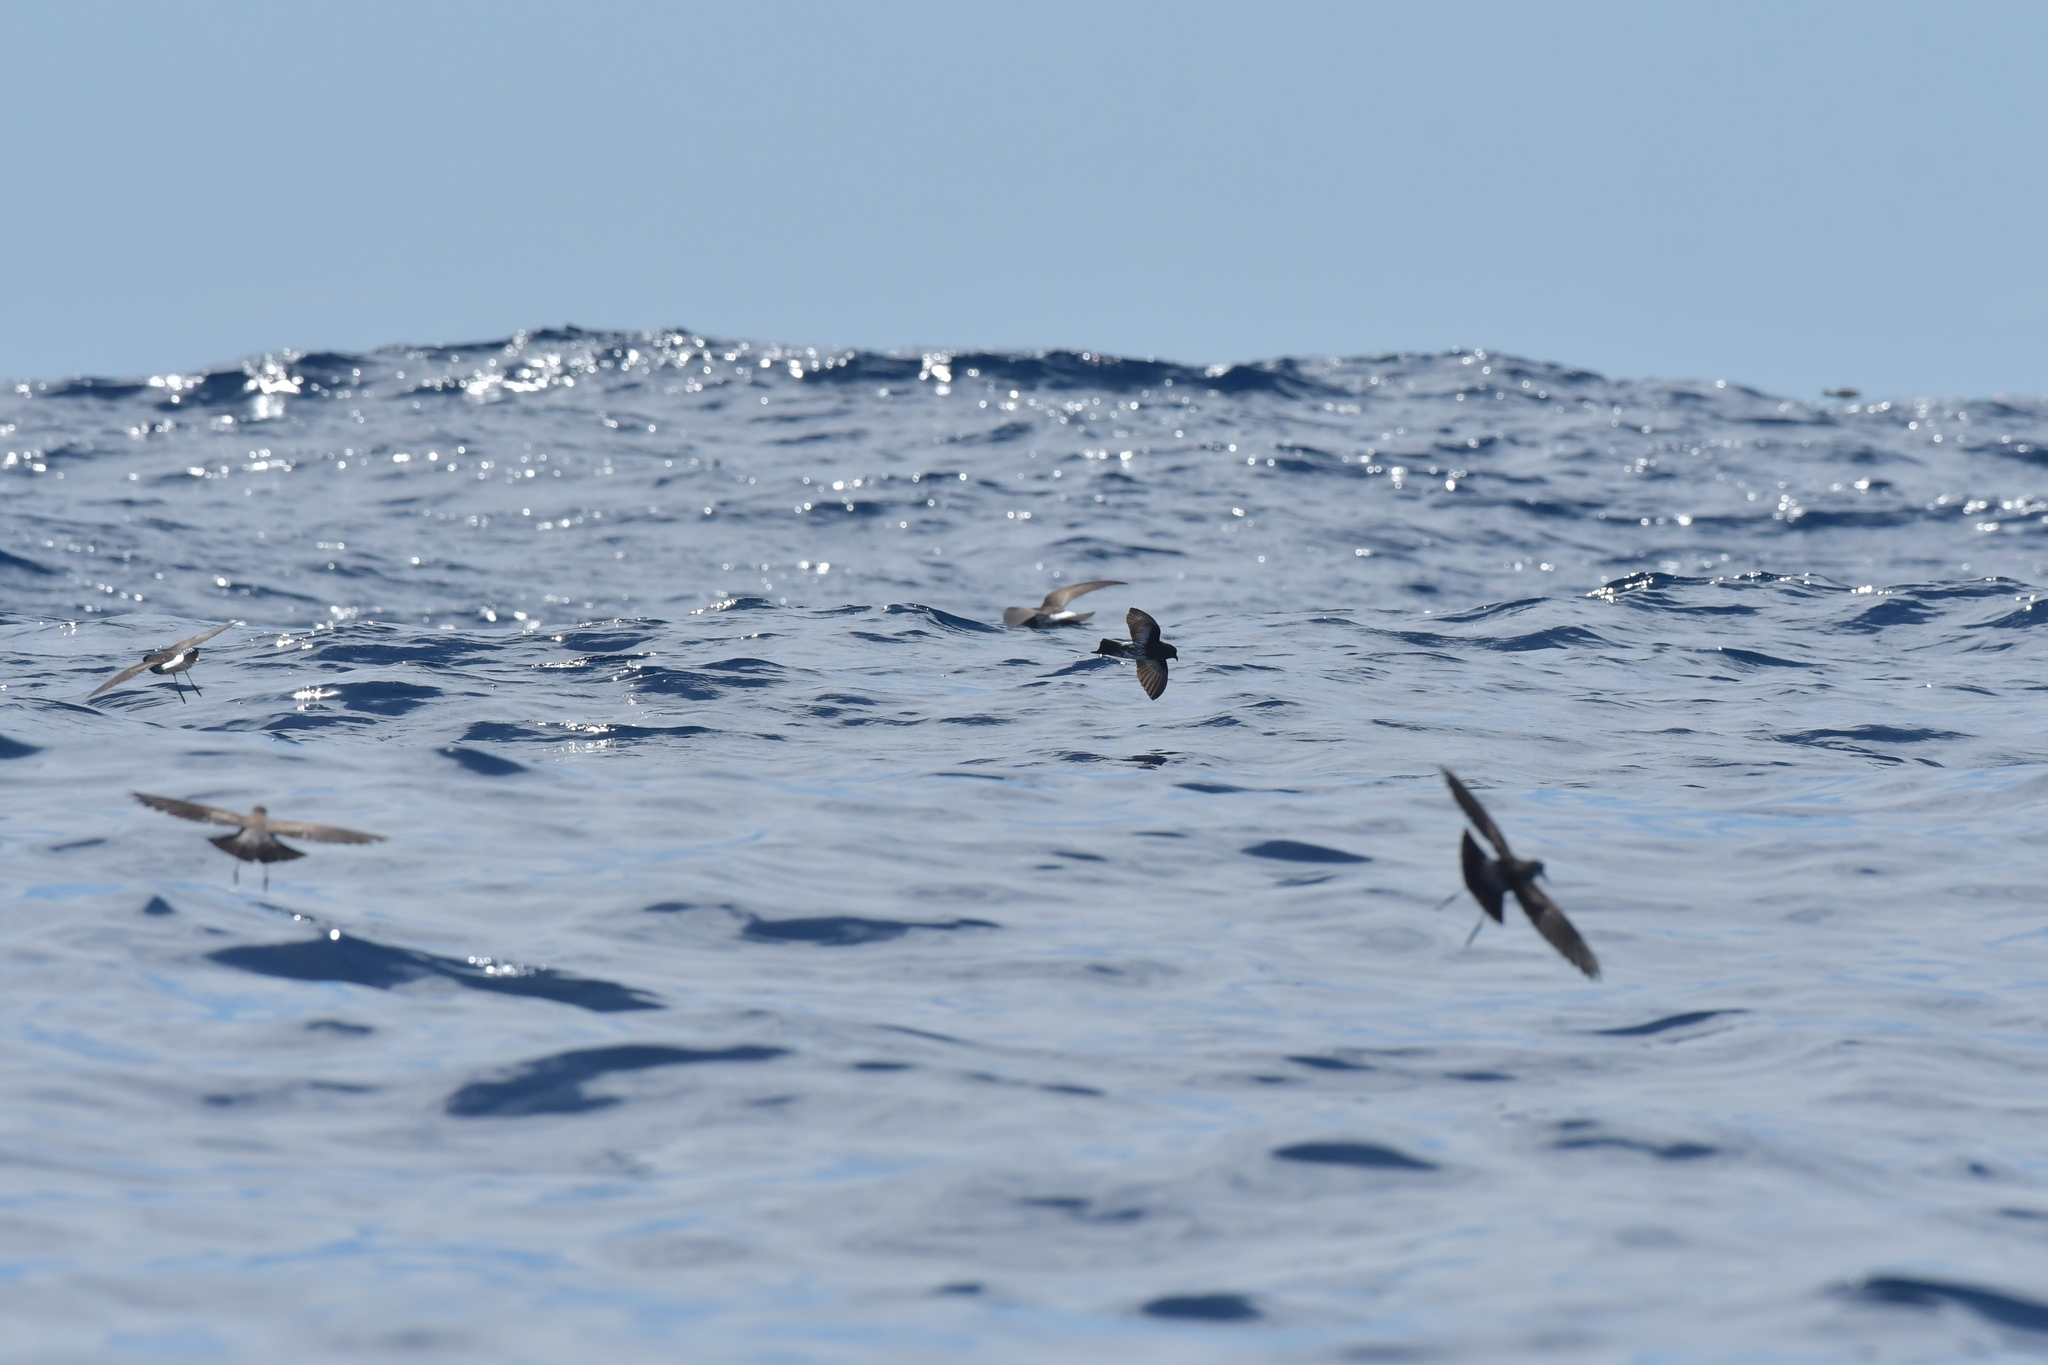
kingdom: Animalia
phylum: Chordata
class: Aves
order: Procellariiformes
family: Hydrobatidae
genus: Oceanites
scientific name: Oceanites maorianus
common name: New zealand storm petrel
